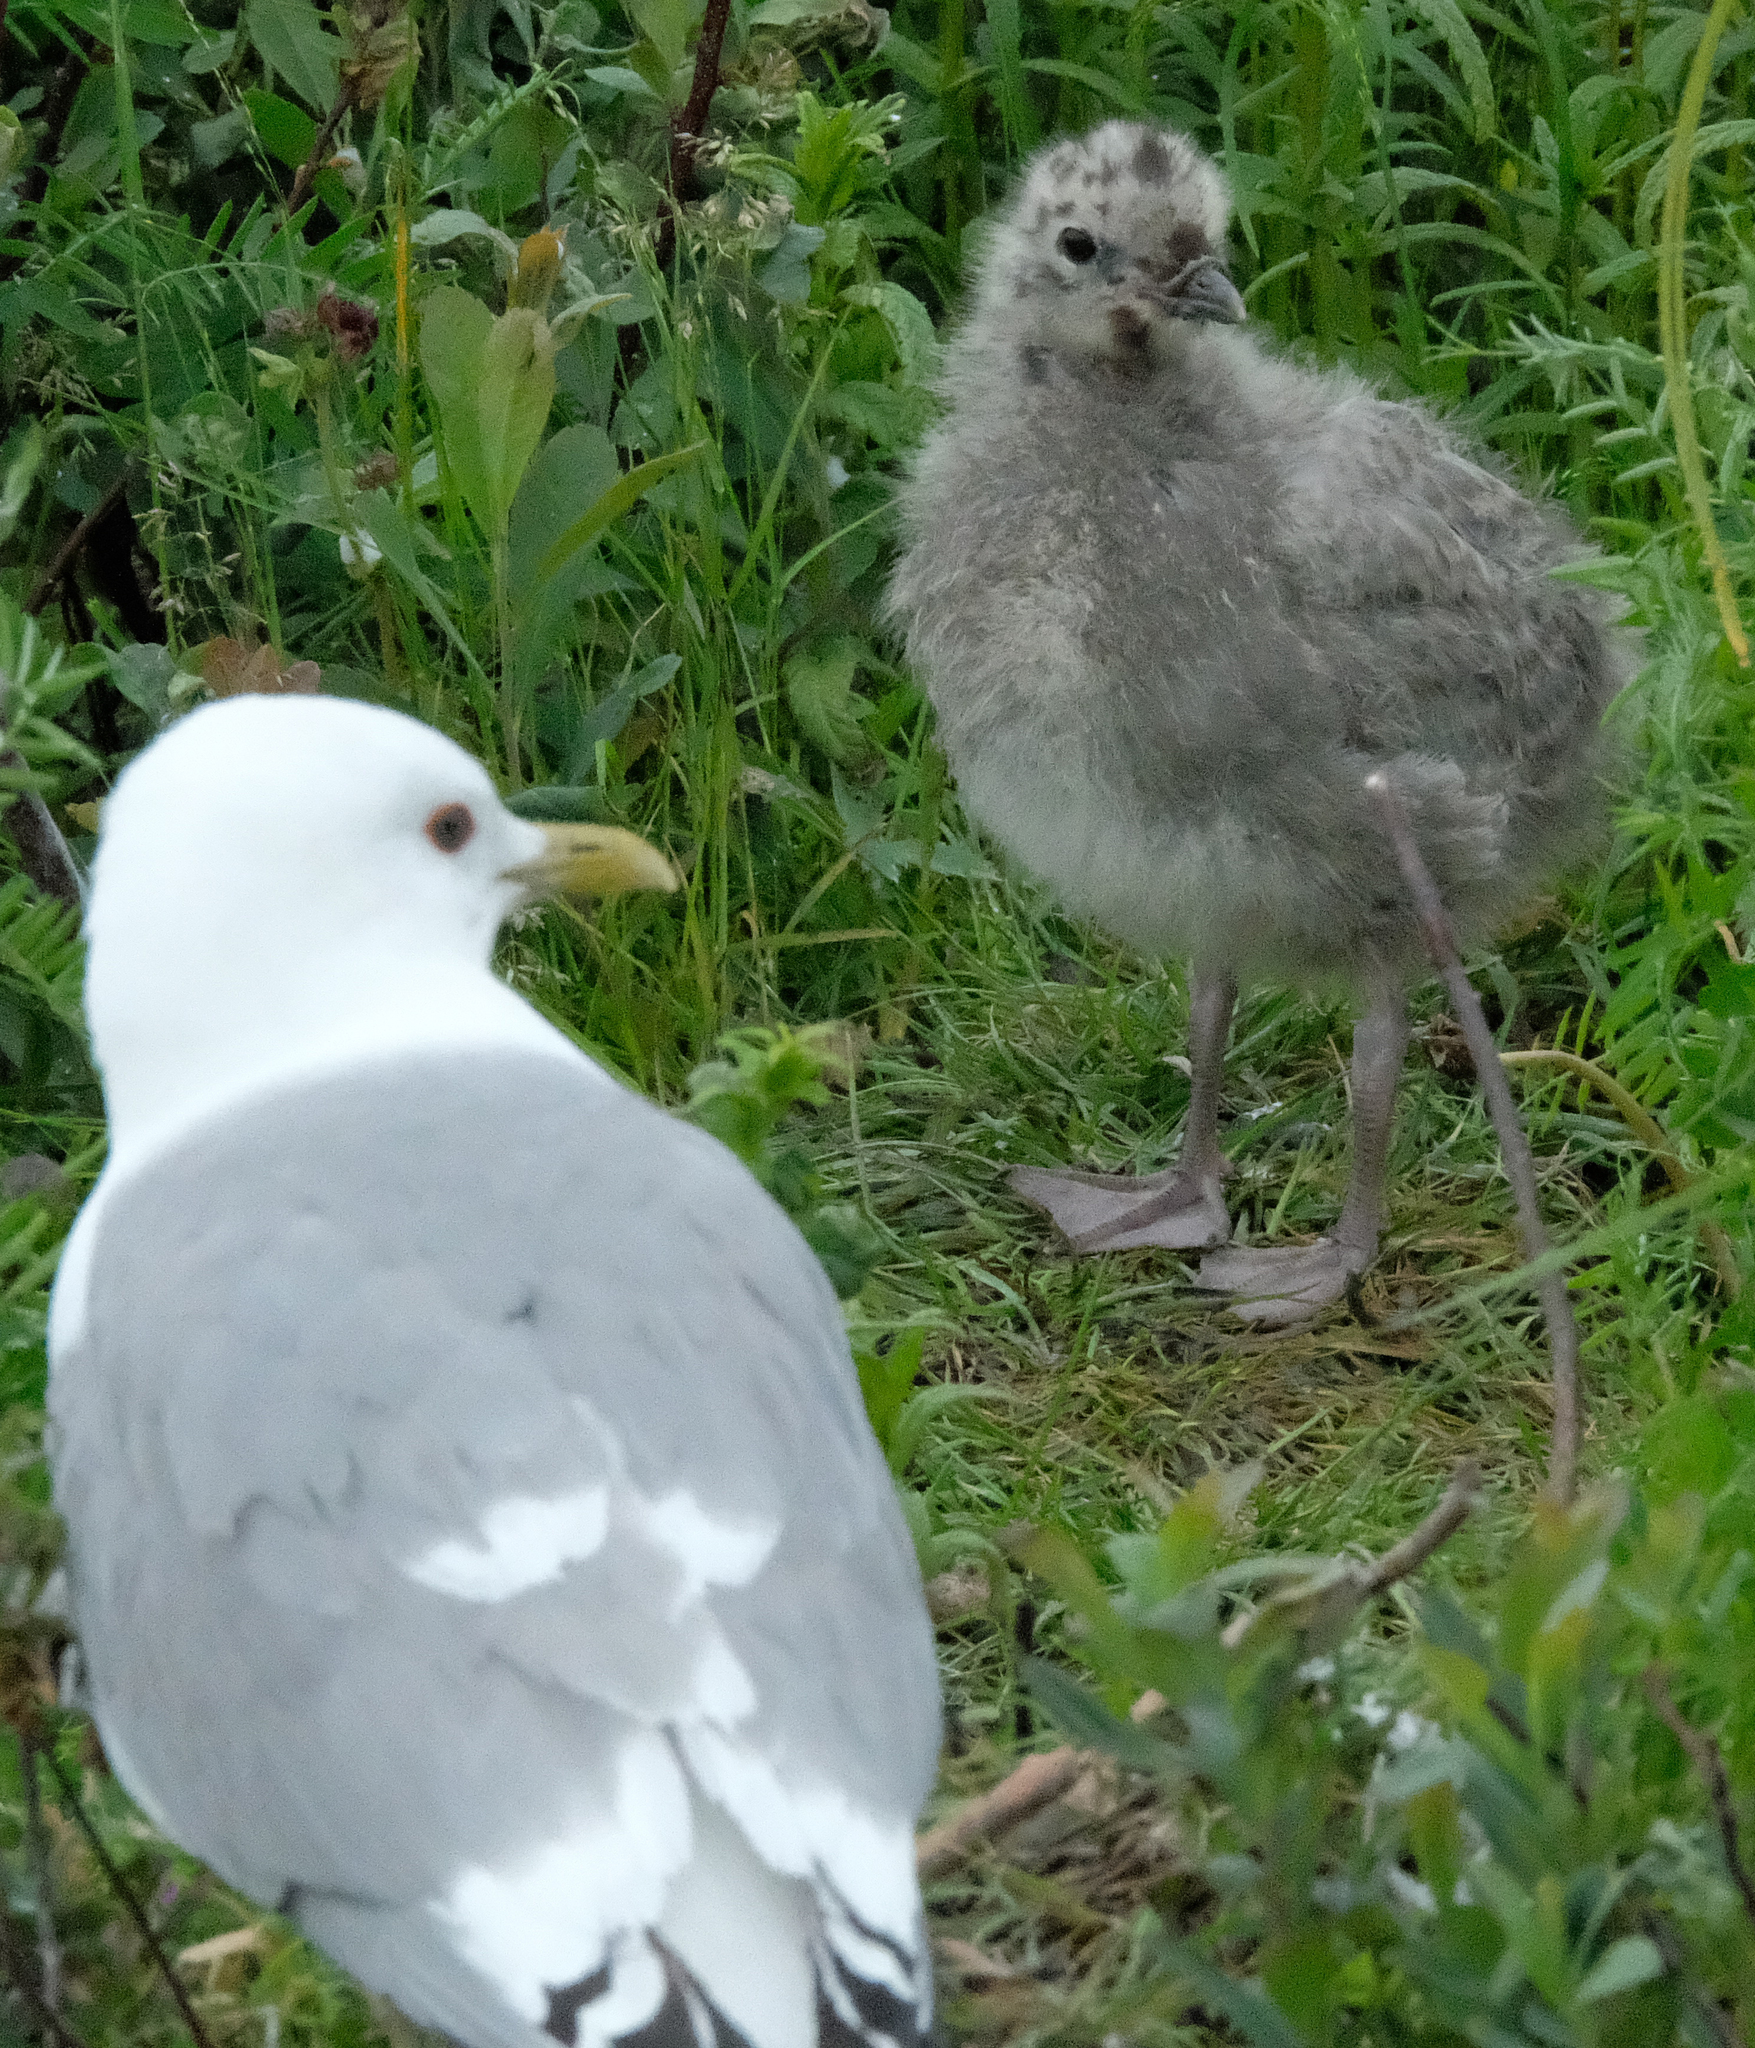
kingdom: Animalia
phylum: Chordata
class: Aves
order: Charadriiformes
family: Laridae
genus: Larus
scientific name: Larus brachyrhynchus
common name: Short-billed gull
